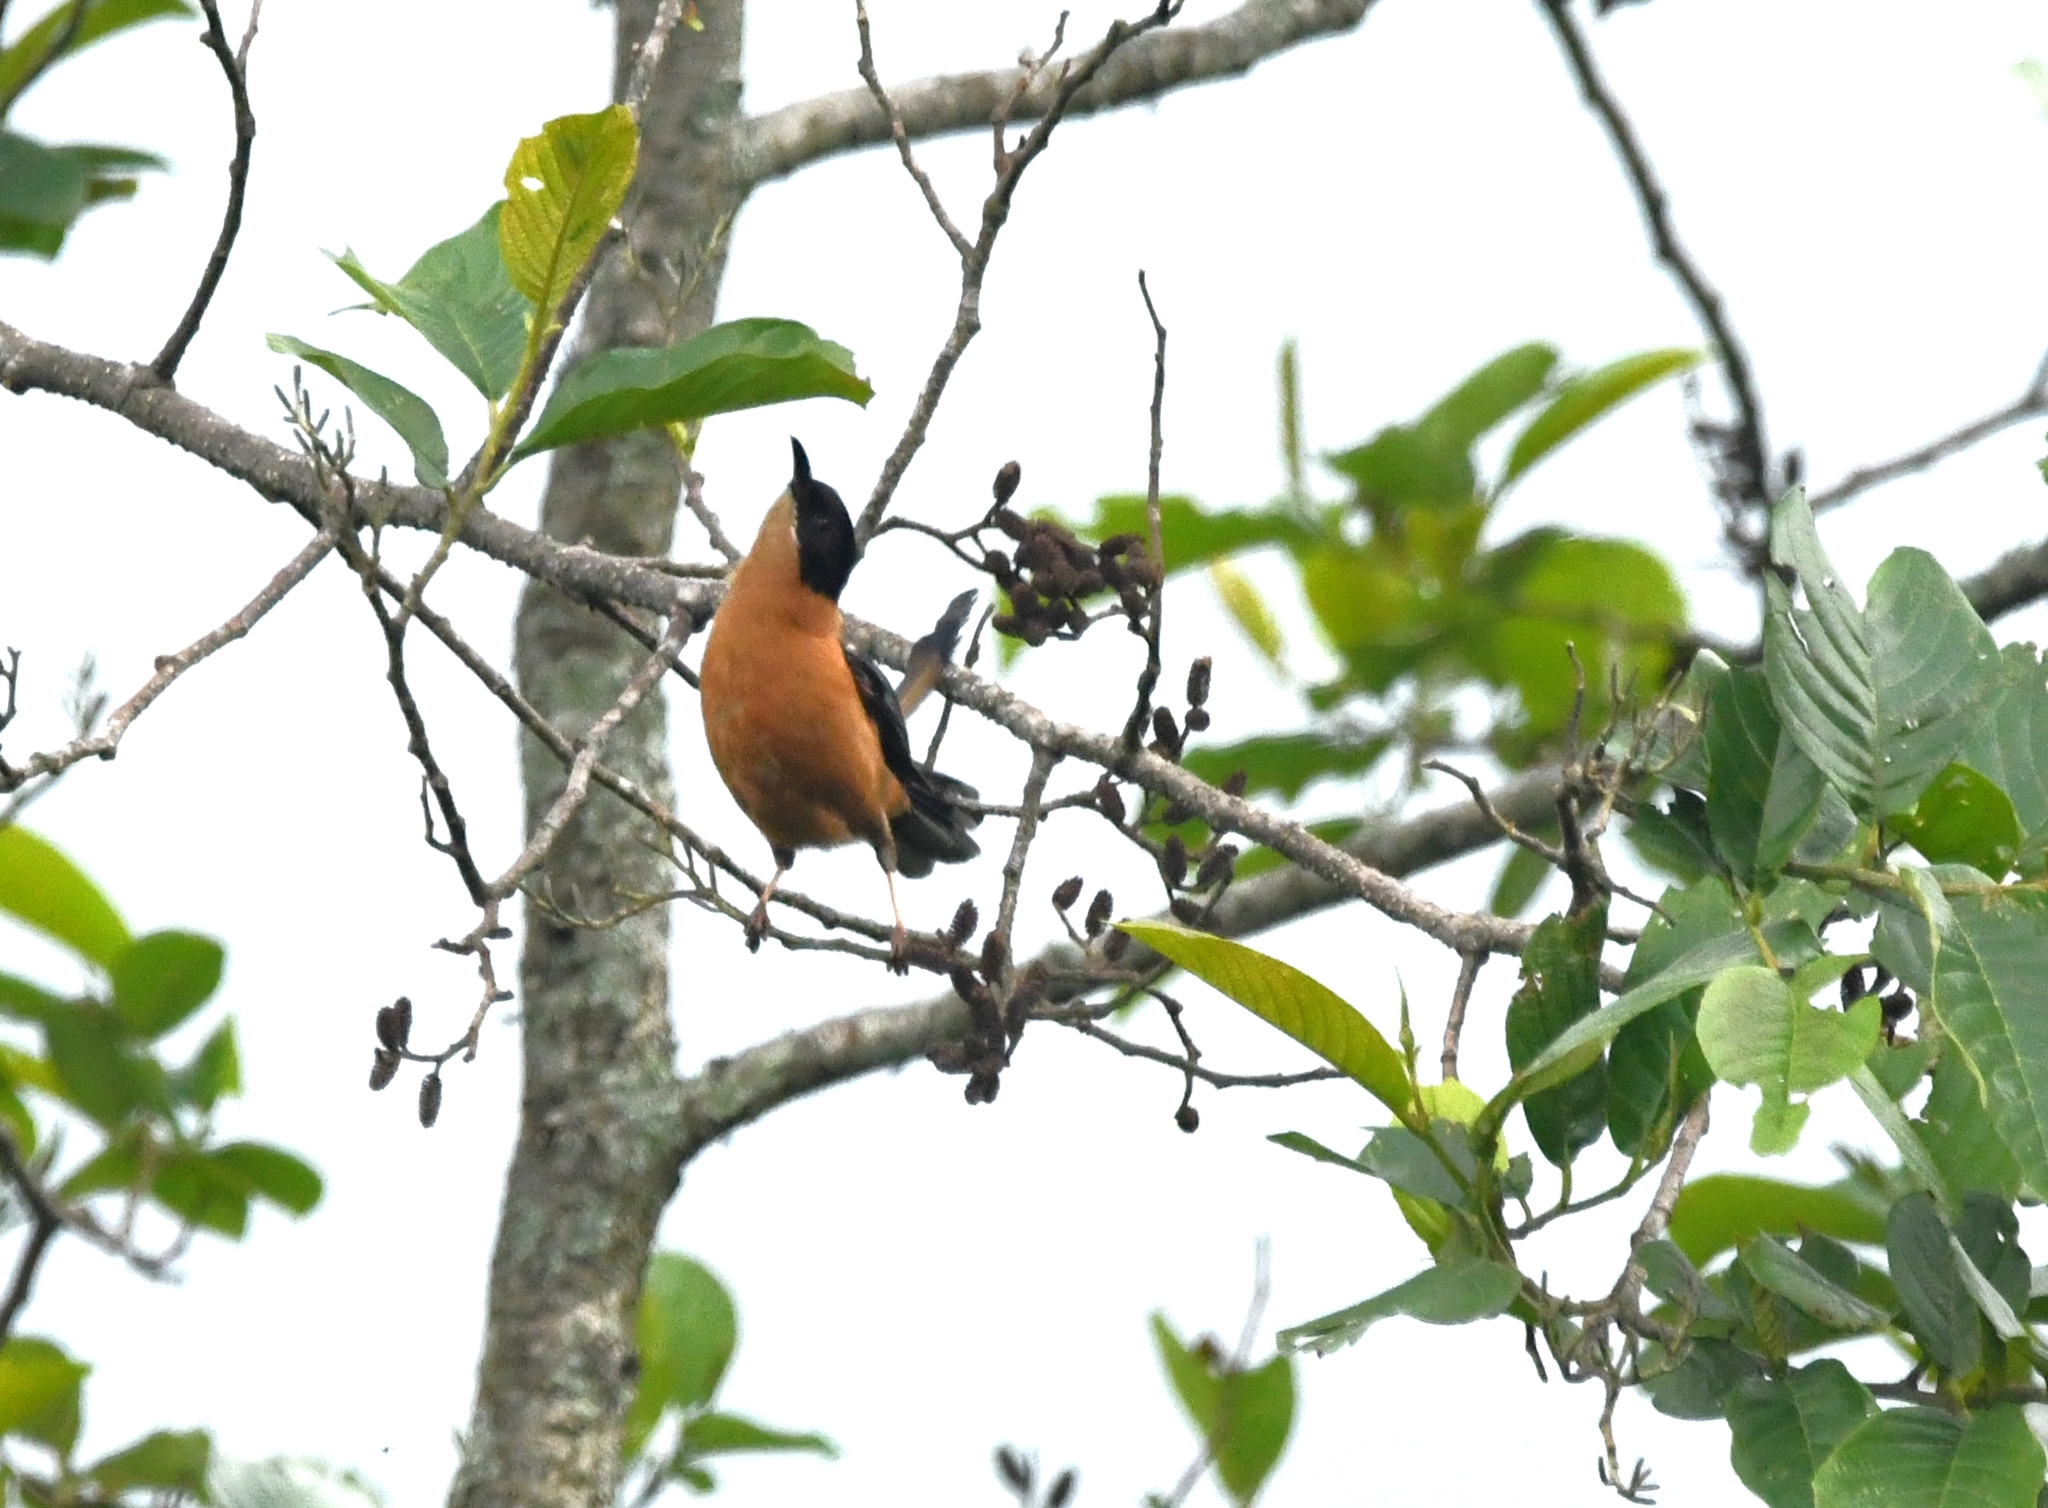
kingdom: Animalia
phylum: Chordata
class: Aves
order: Passeriformes
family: Leiothrichidae
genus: Heterophasia
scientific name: Heterophasia capistrata
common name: Rufous sibia
